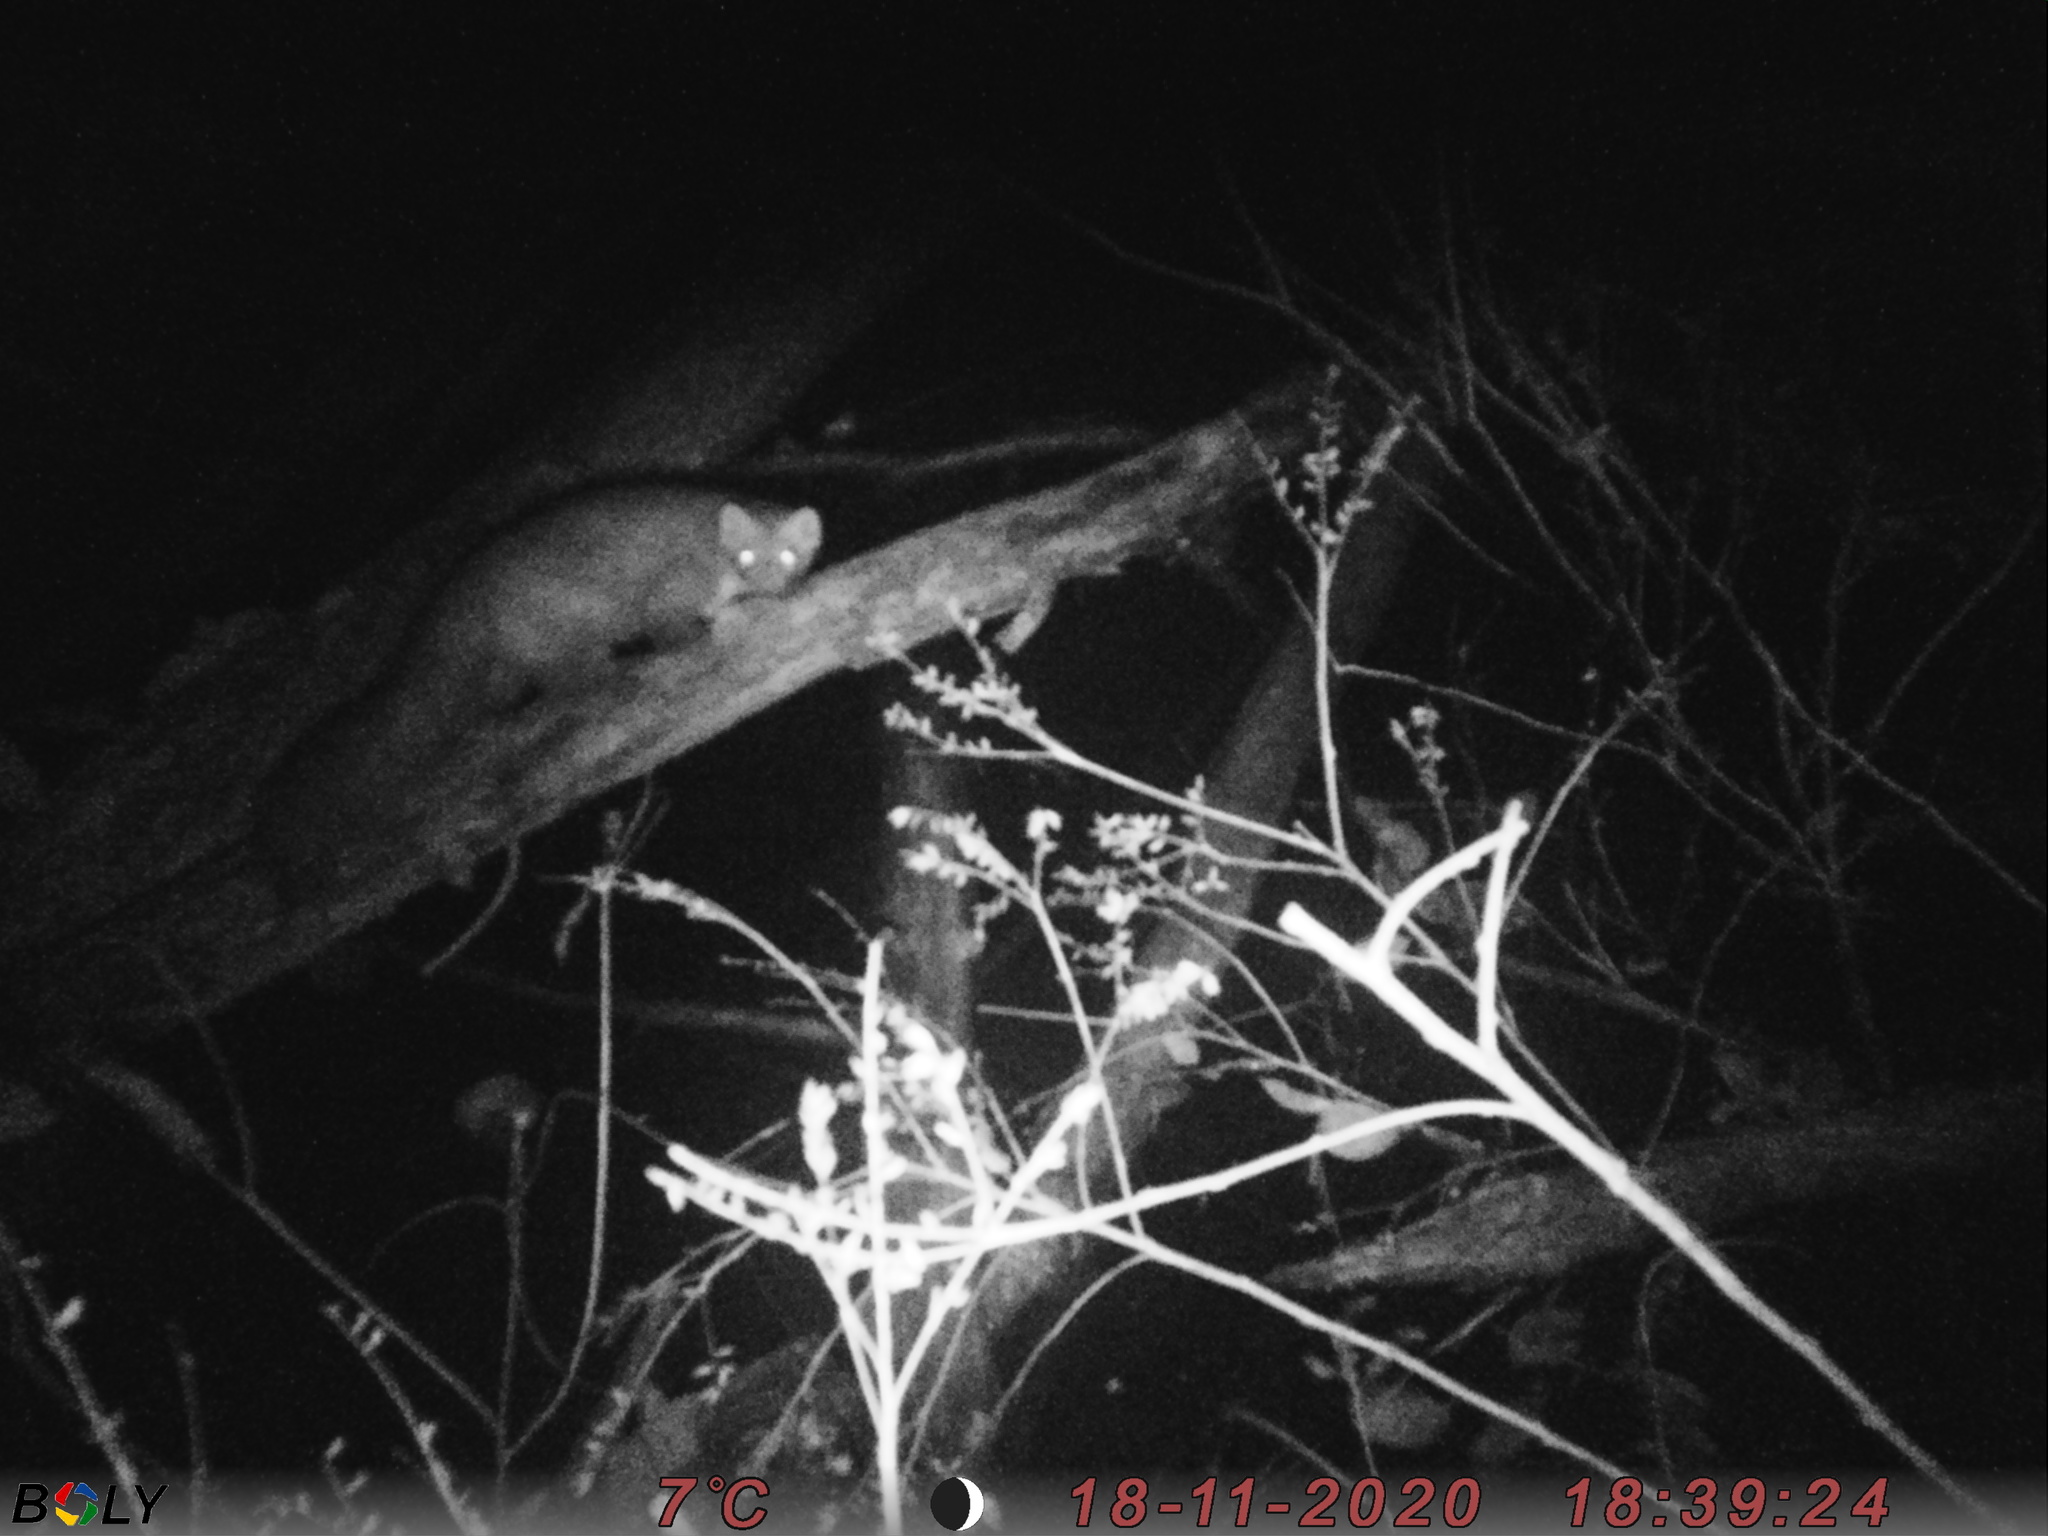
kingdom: Animalia
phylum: Chordata
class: Mammalia
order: Carnivora
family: Mustelidae
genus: Martes
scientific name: Martes foina
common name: Beech marten
